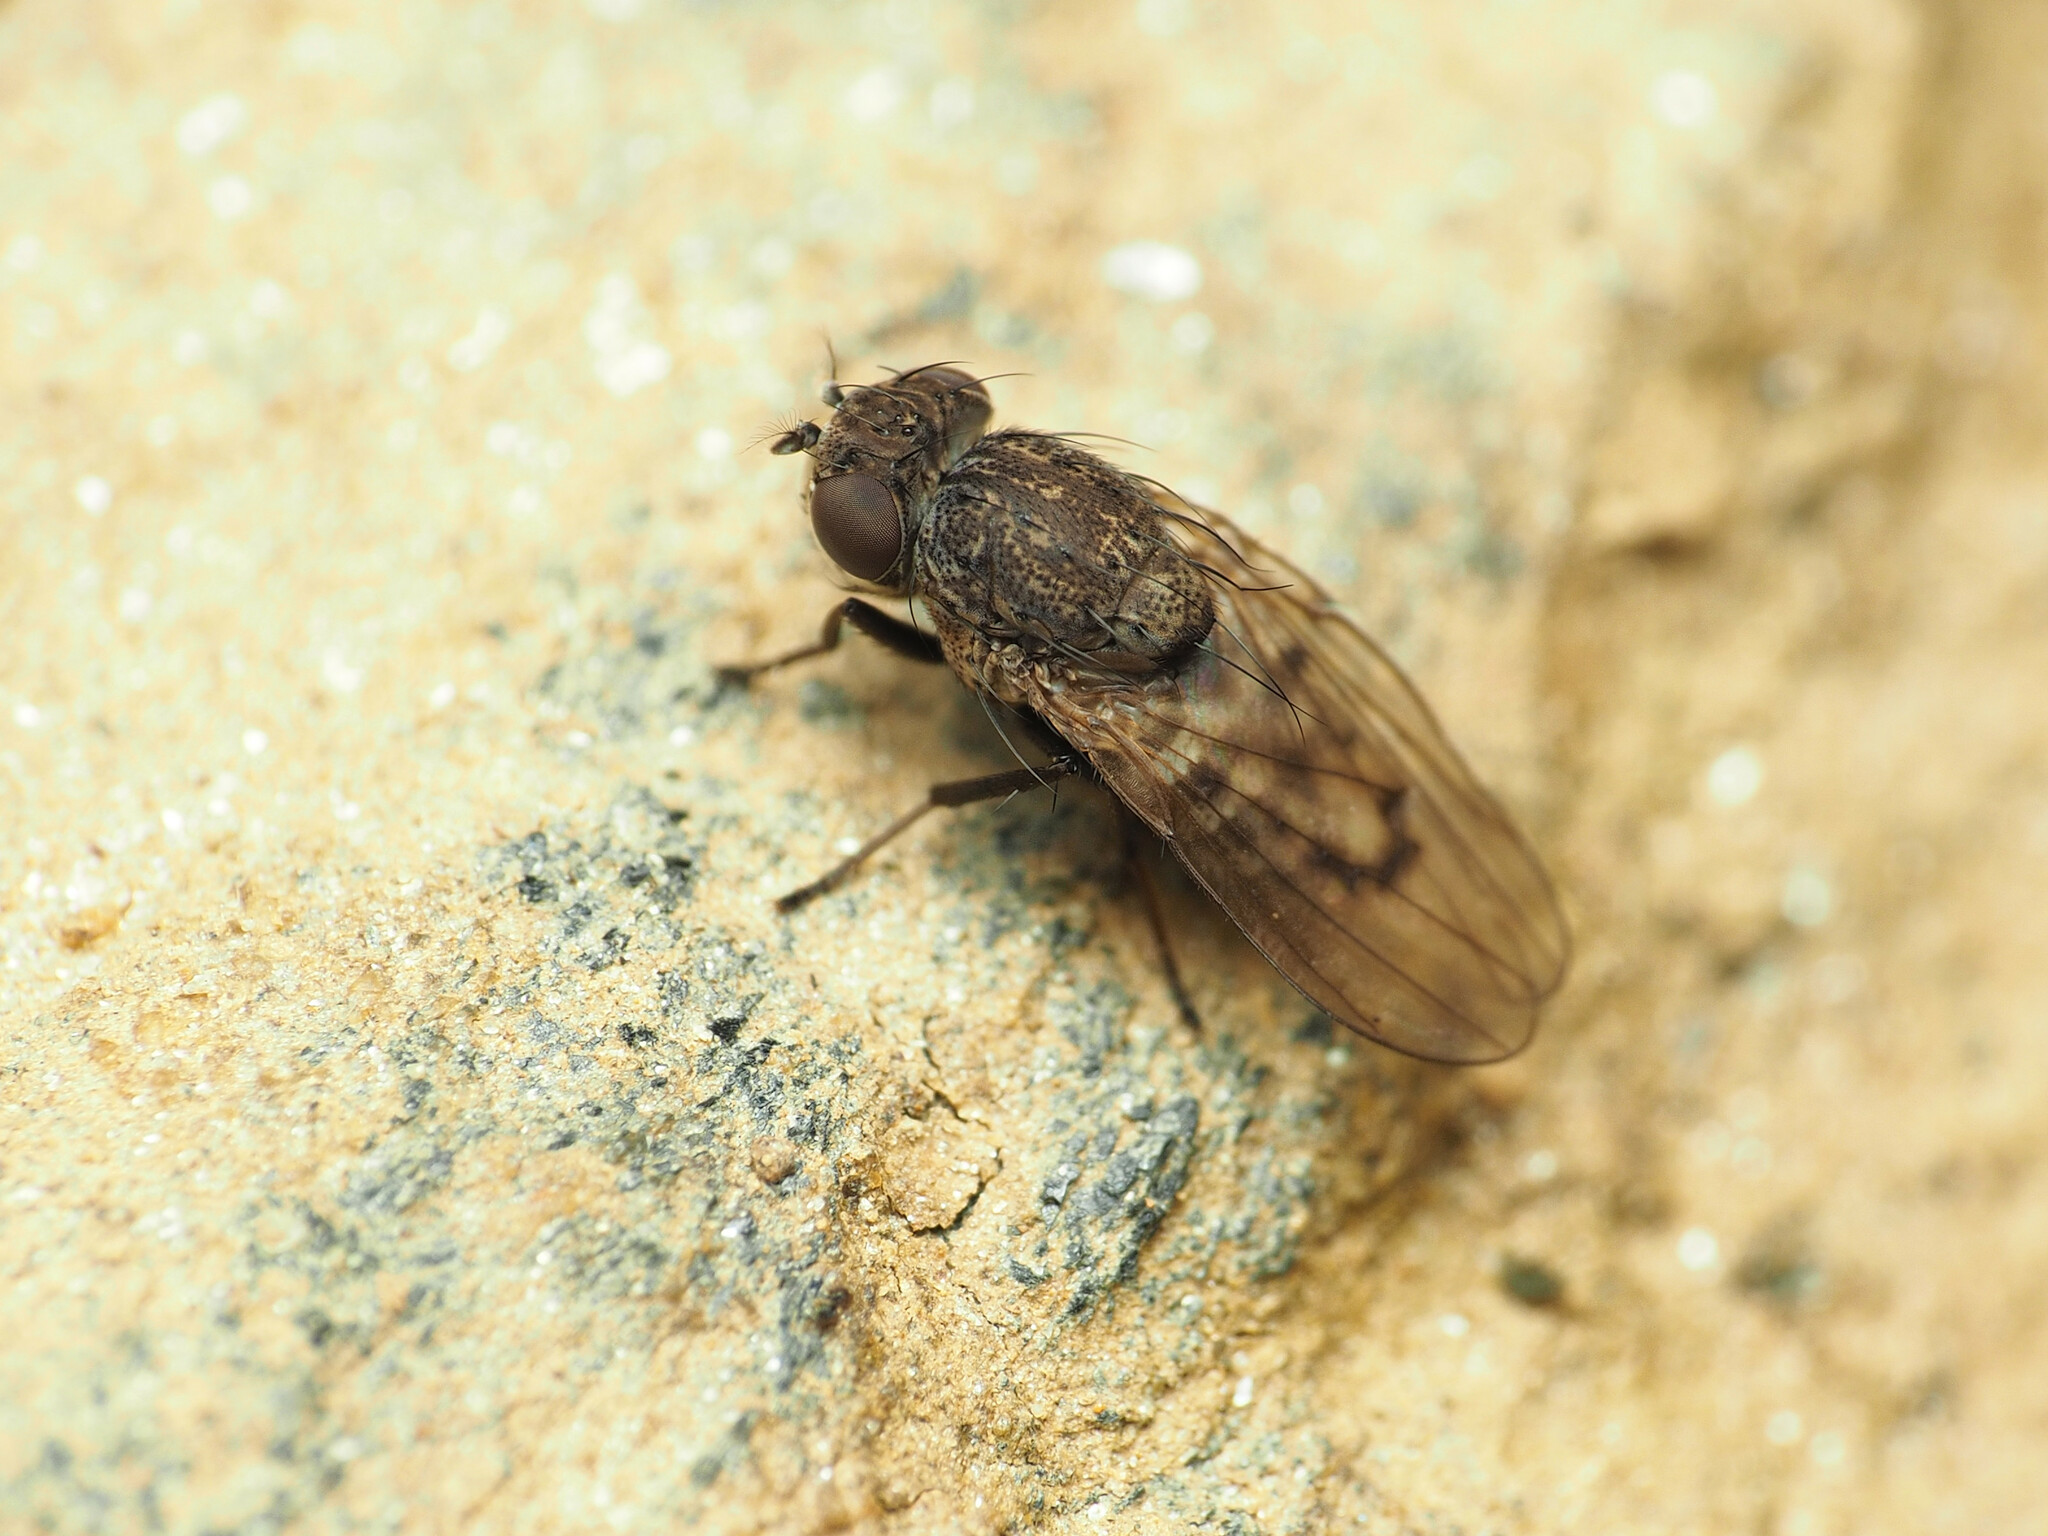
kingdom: Animalia
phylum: Arthropoda
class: Insecta
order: Diptera
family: Ephydridae
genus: Paralimna
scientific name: Paralimna punctipennis
